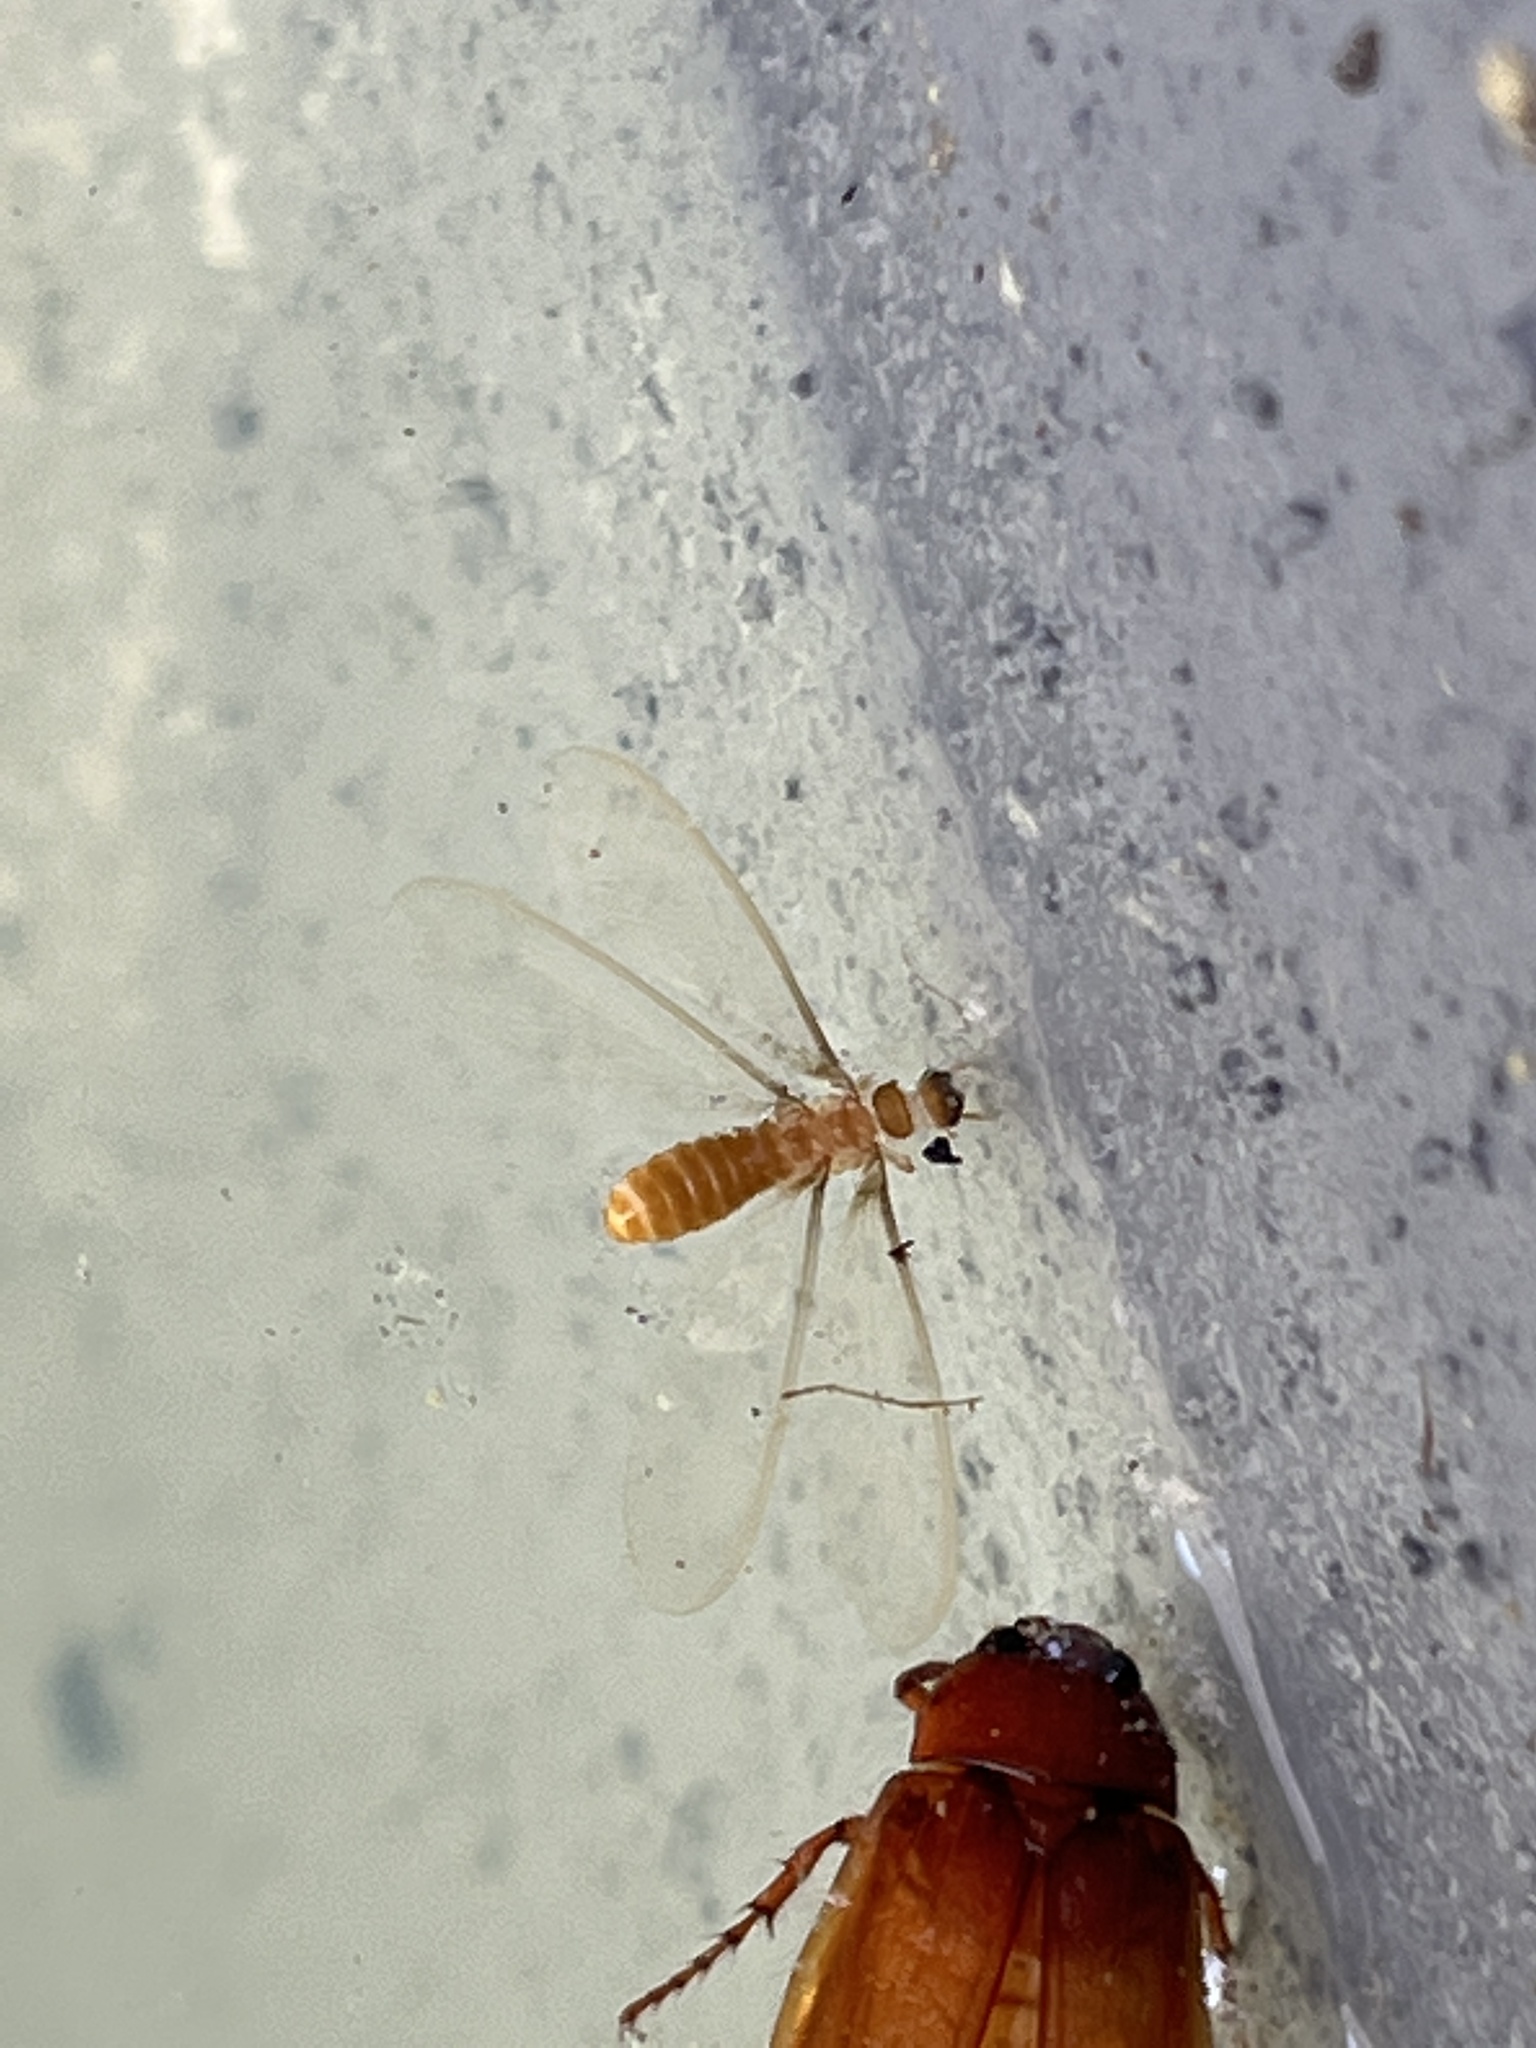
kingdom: Animalia
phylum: Arthropoda
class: Insecta
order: Blattodea
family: Rhinotermitidae
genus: Coptotermes
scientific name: Coptotermes formosanus
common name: Formosan termite
